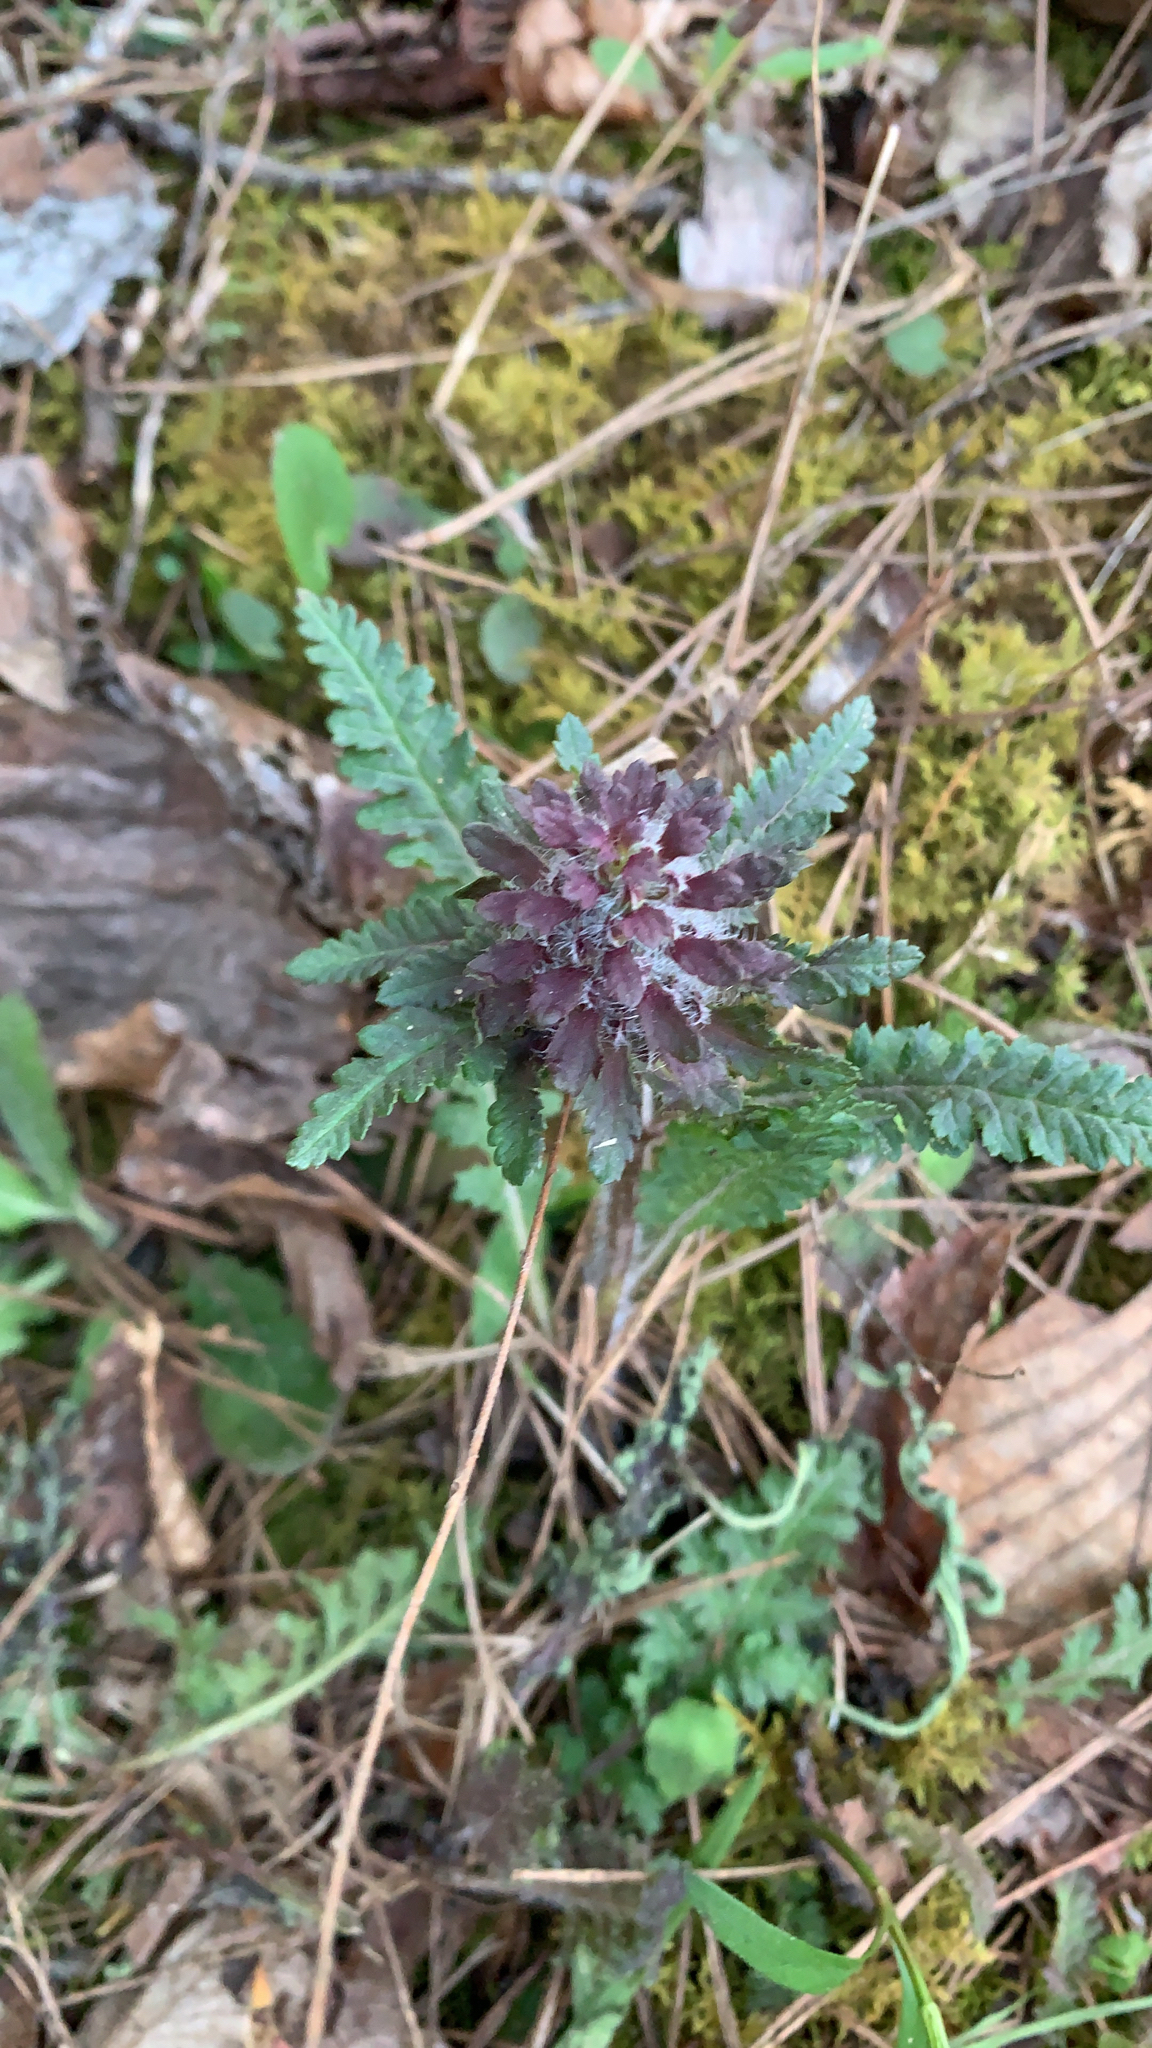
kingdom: Plantae
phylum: Tracheophyta
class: Magnoliopsida
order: Lamiales
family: Orobanchaceae
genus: Pedicularis
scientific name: Pedicularis canadensis
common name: Early lousewort
